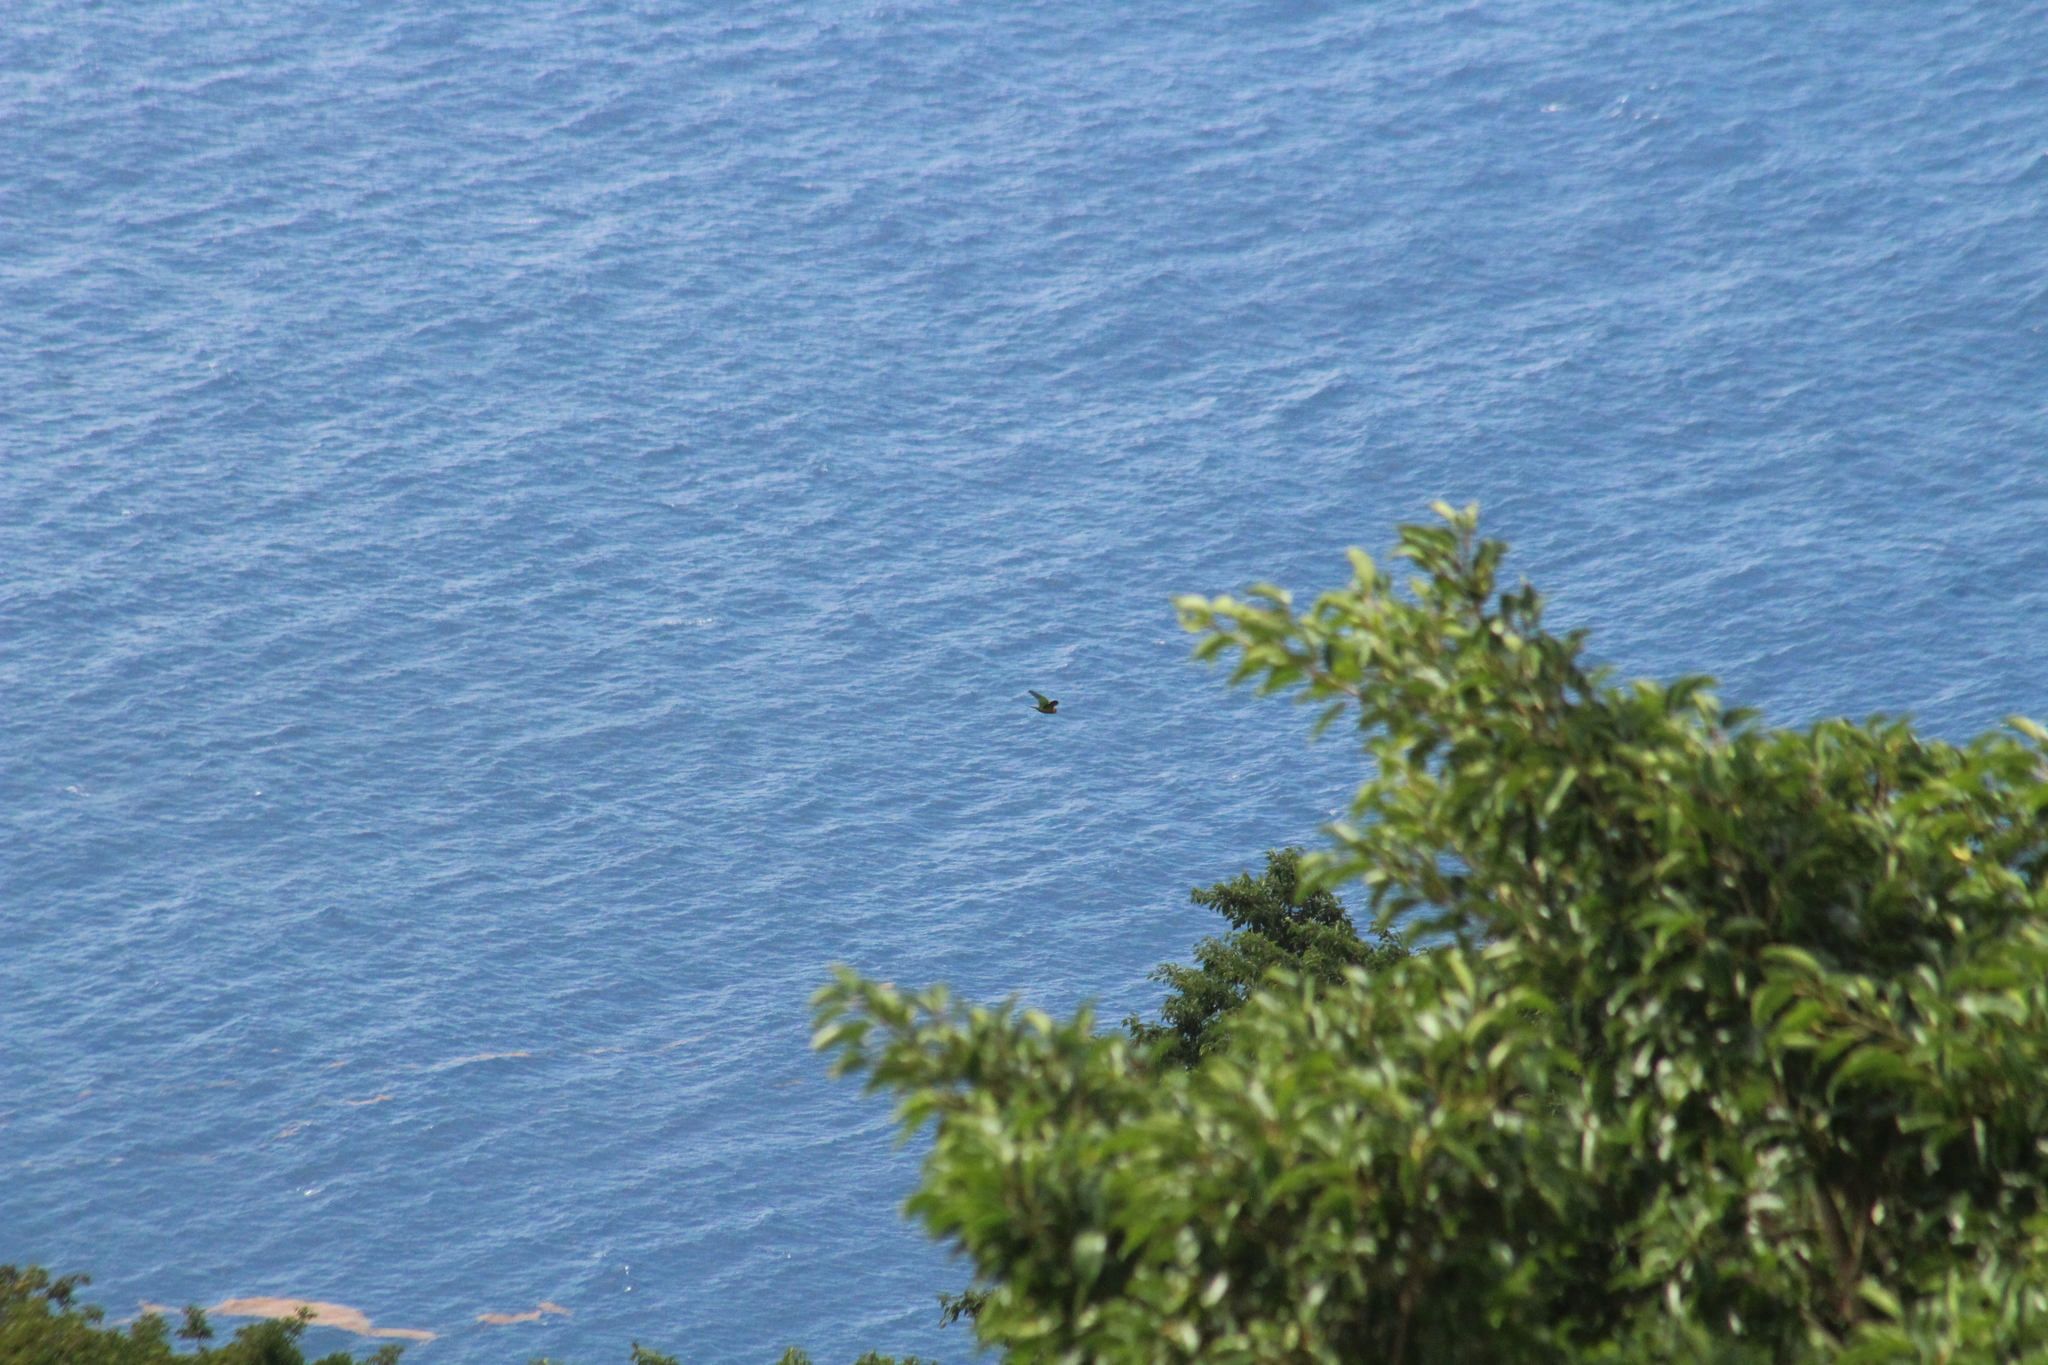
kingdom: Animalia
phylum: Chordata
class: Aves
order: Psittaciformes
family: Psittacidae
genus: Aratinga
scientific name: Aratinga pertinax
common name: Brown-throated parakeet
